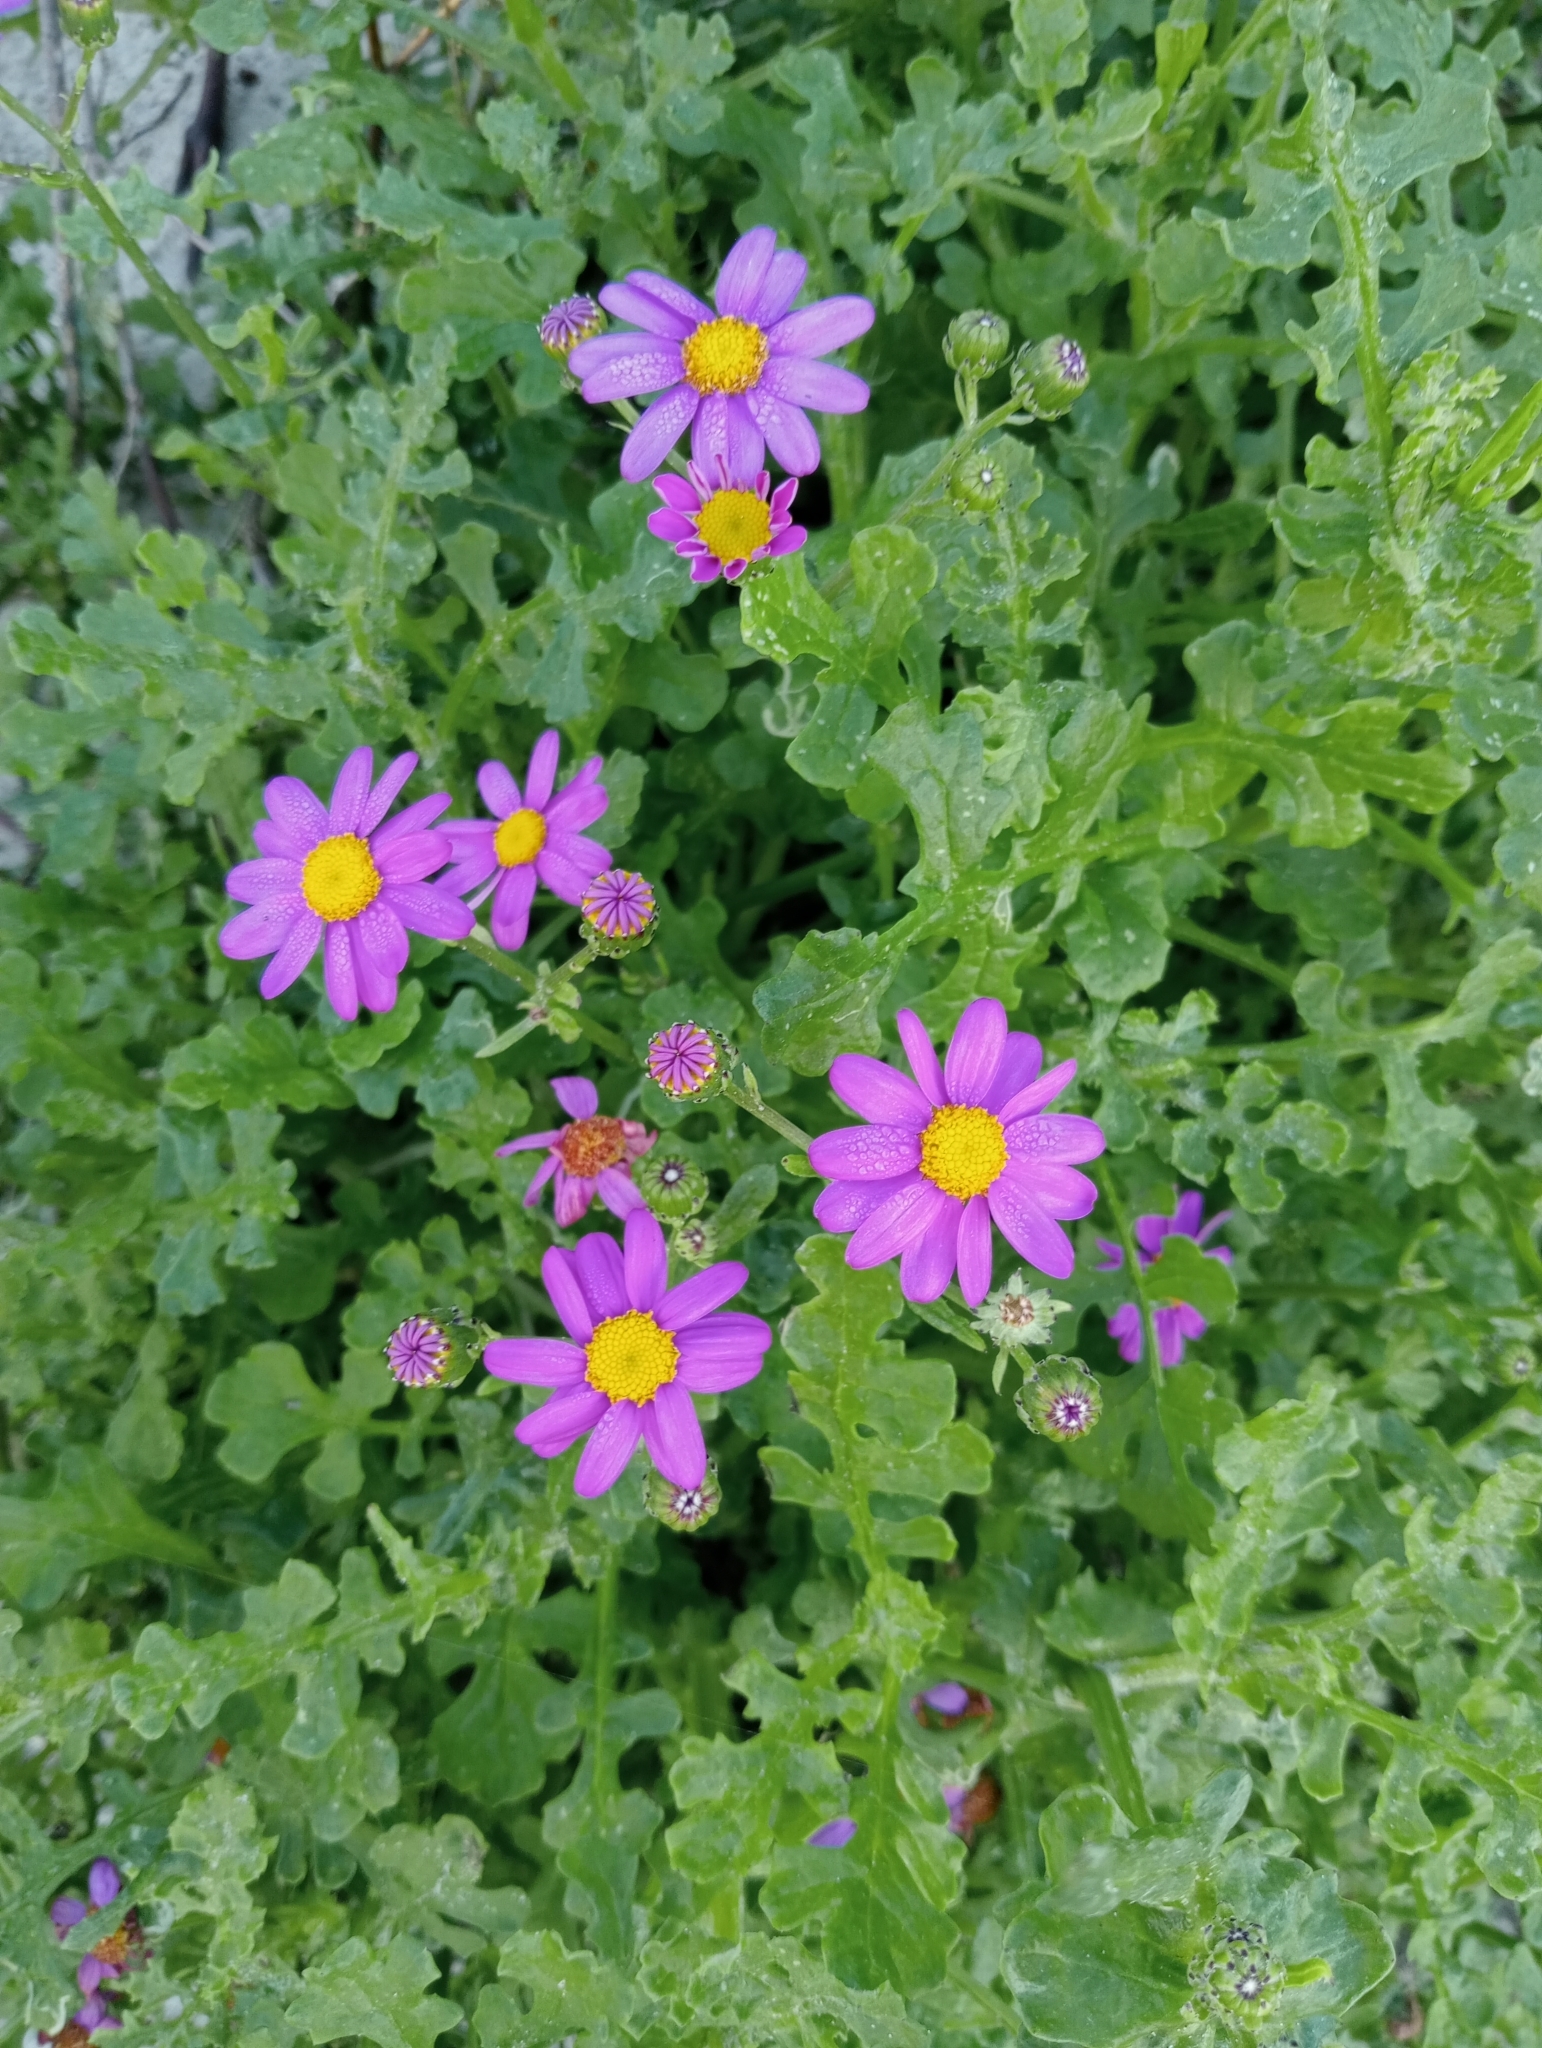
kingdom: Plantae
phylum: Tracheophyta
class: Magnoliopsida
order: Asterales
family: Asteraceae
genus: Senecio
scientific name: Senecio elegans
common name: Purple groundsel
